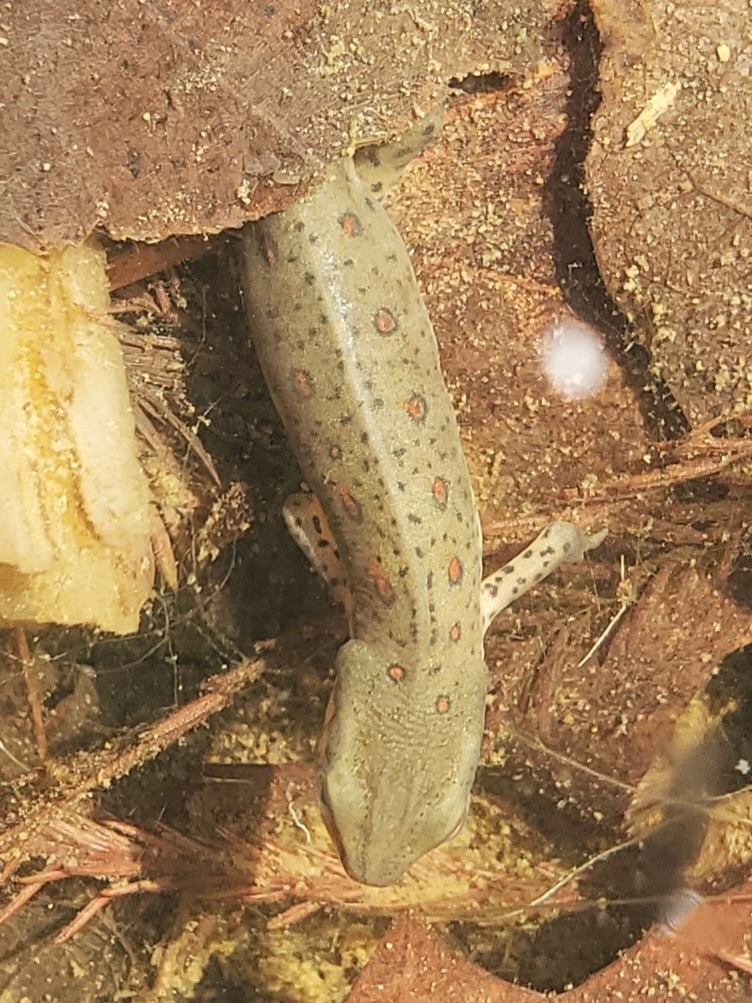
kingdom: Animalia
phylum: Chordata
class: Amphibia
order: Caudata
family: Salamandridae
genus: Notophthalmus
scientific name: Notophthalmus viridescens
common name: Eastern newt
